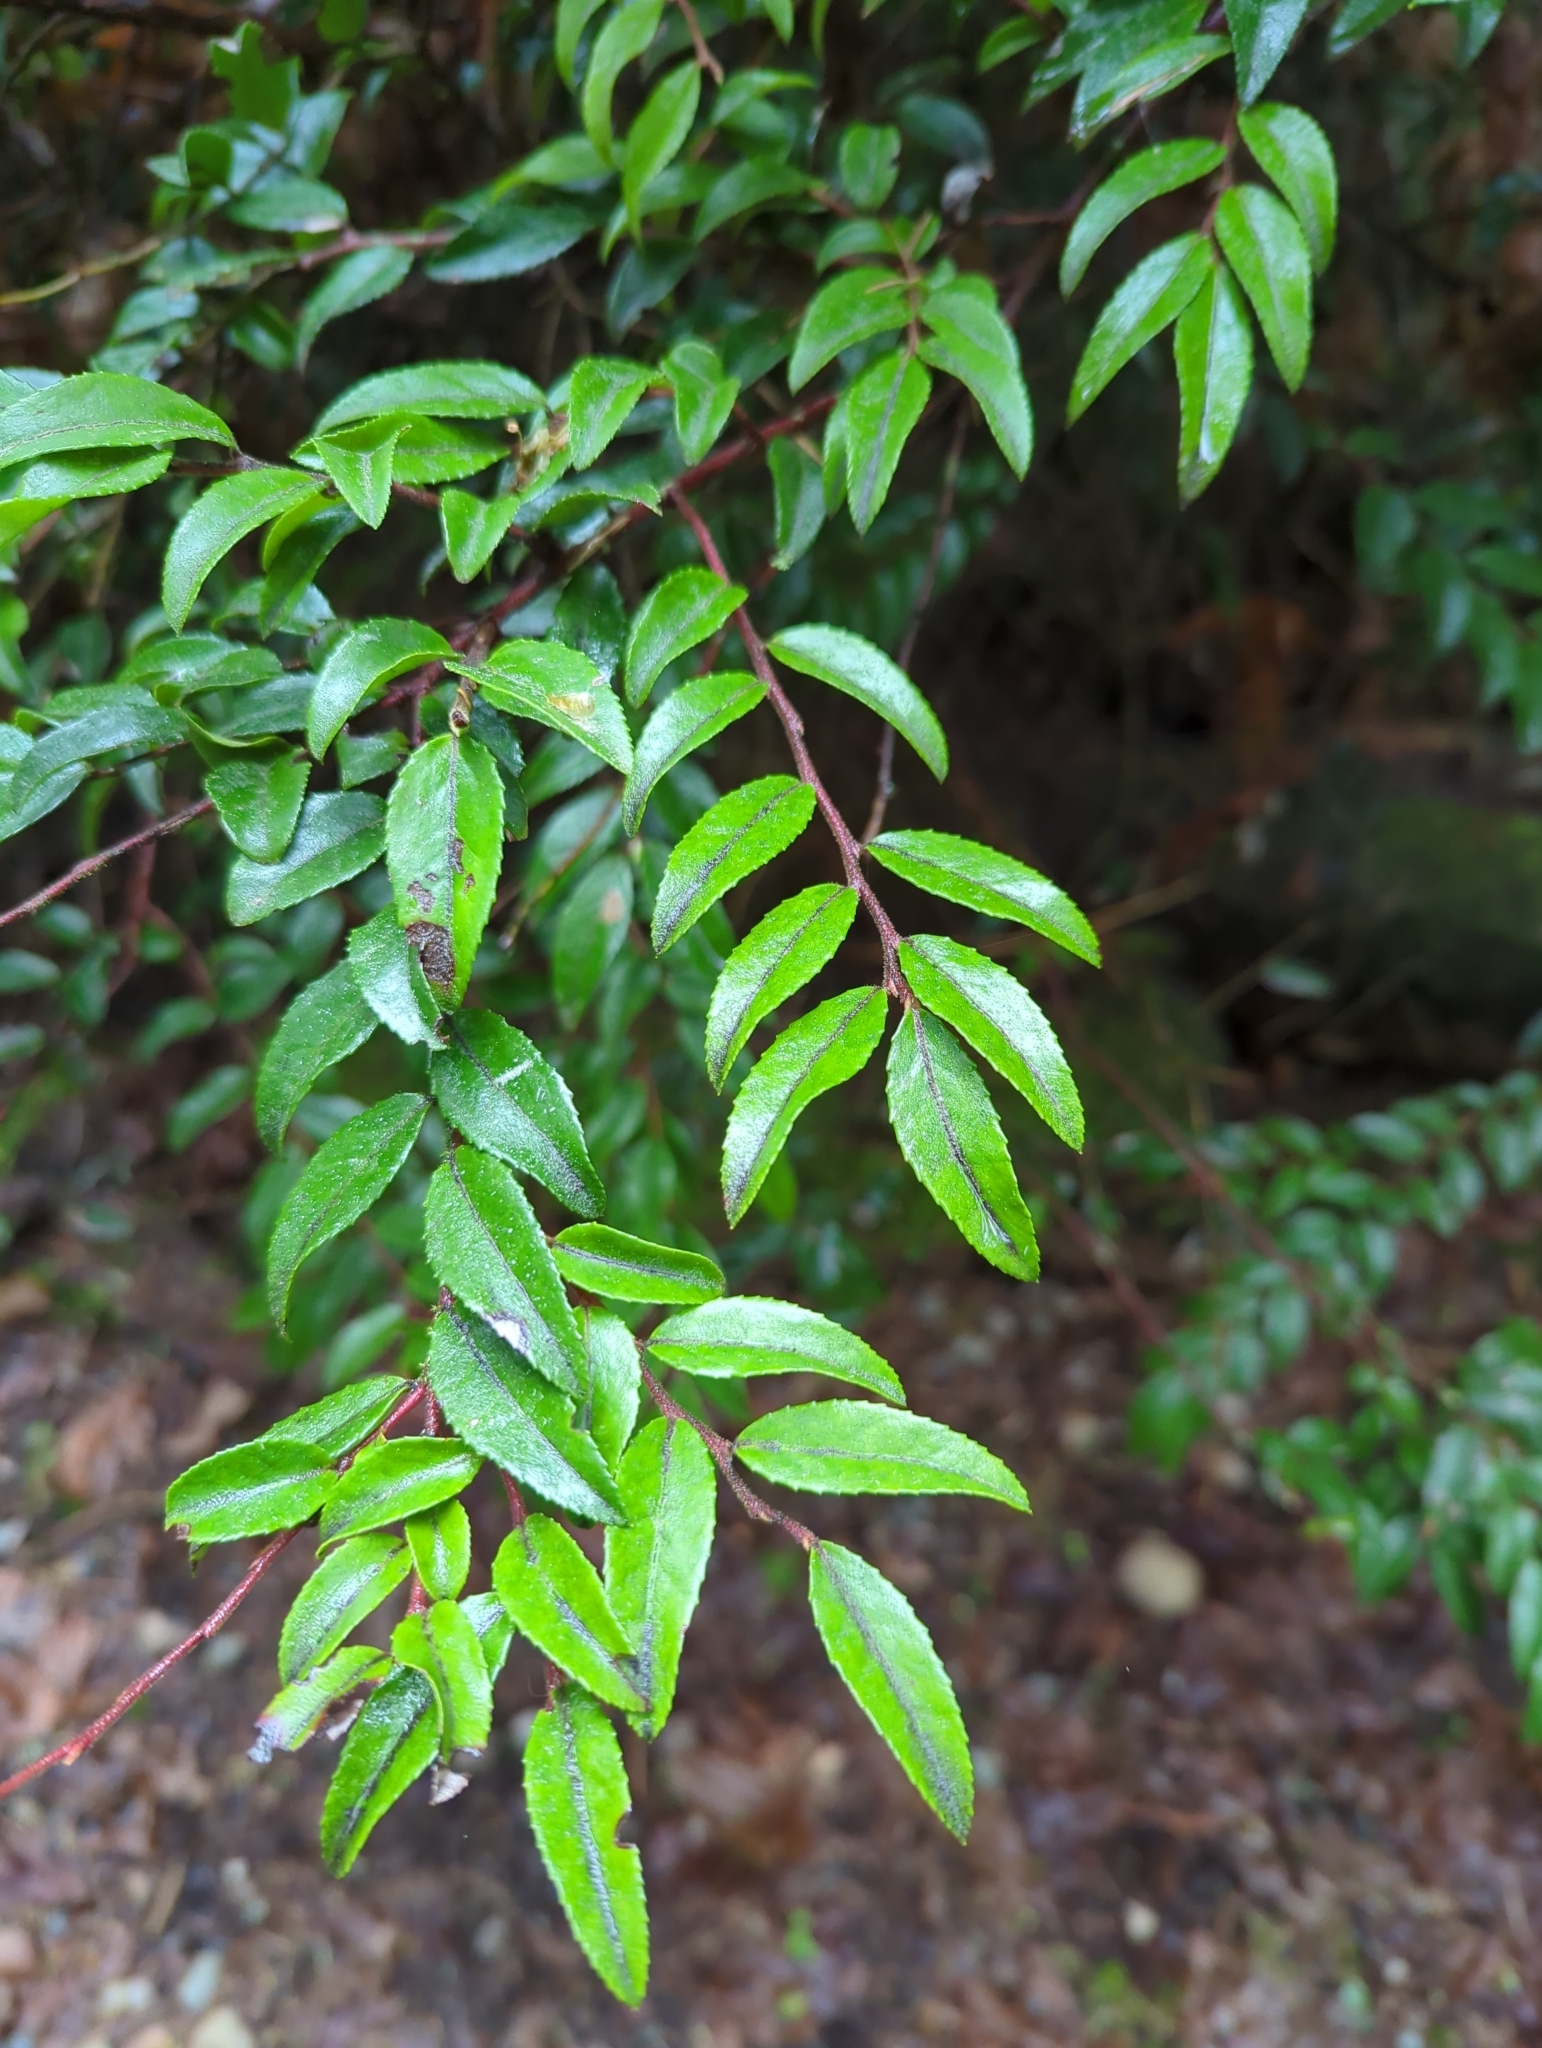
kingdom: Plantae
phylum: Tracheophyta
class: Magnoliopsida
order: Ericales
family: Ericaceae
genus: Vaccinium
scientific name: Vaccinium ovatum
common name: California-huckleberry
